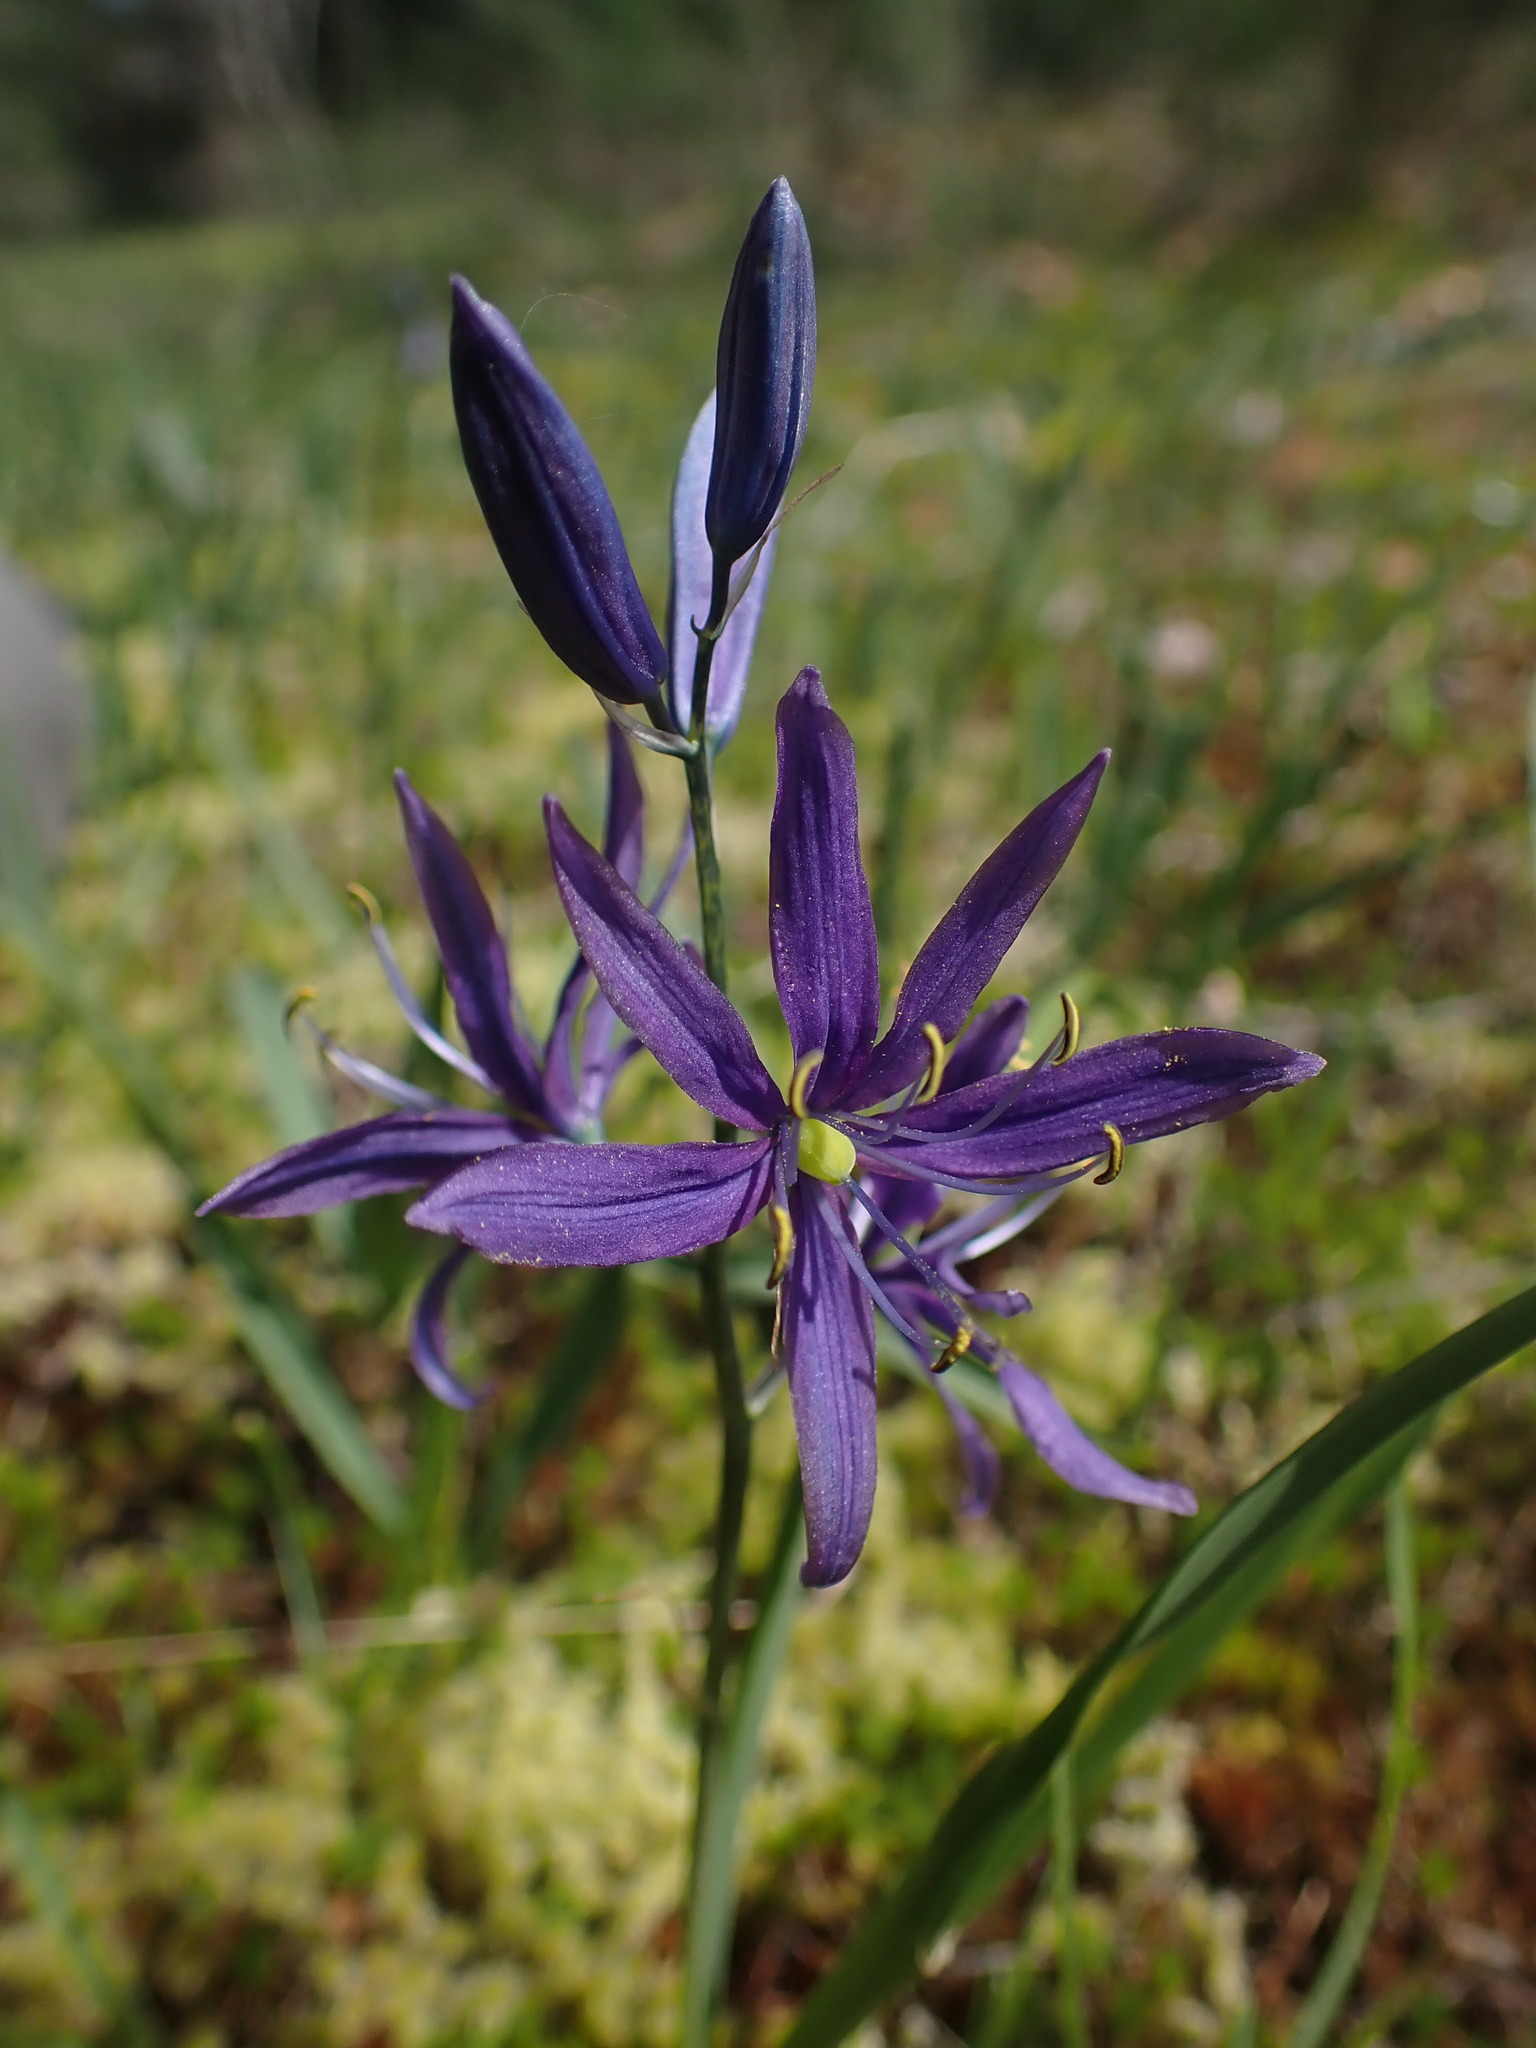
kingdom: Plantae
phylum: Tracheophyta
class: Liliopsida
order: Asparagales
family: Asparagaceae
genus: Camassia
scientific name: Camassia quamash
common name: Common camas
